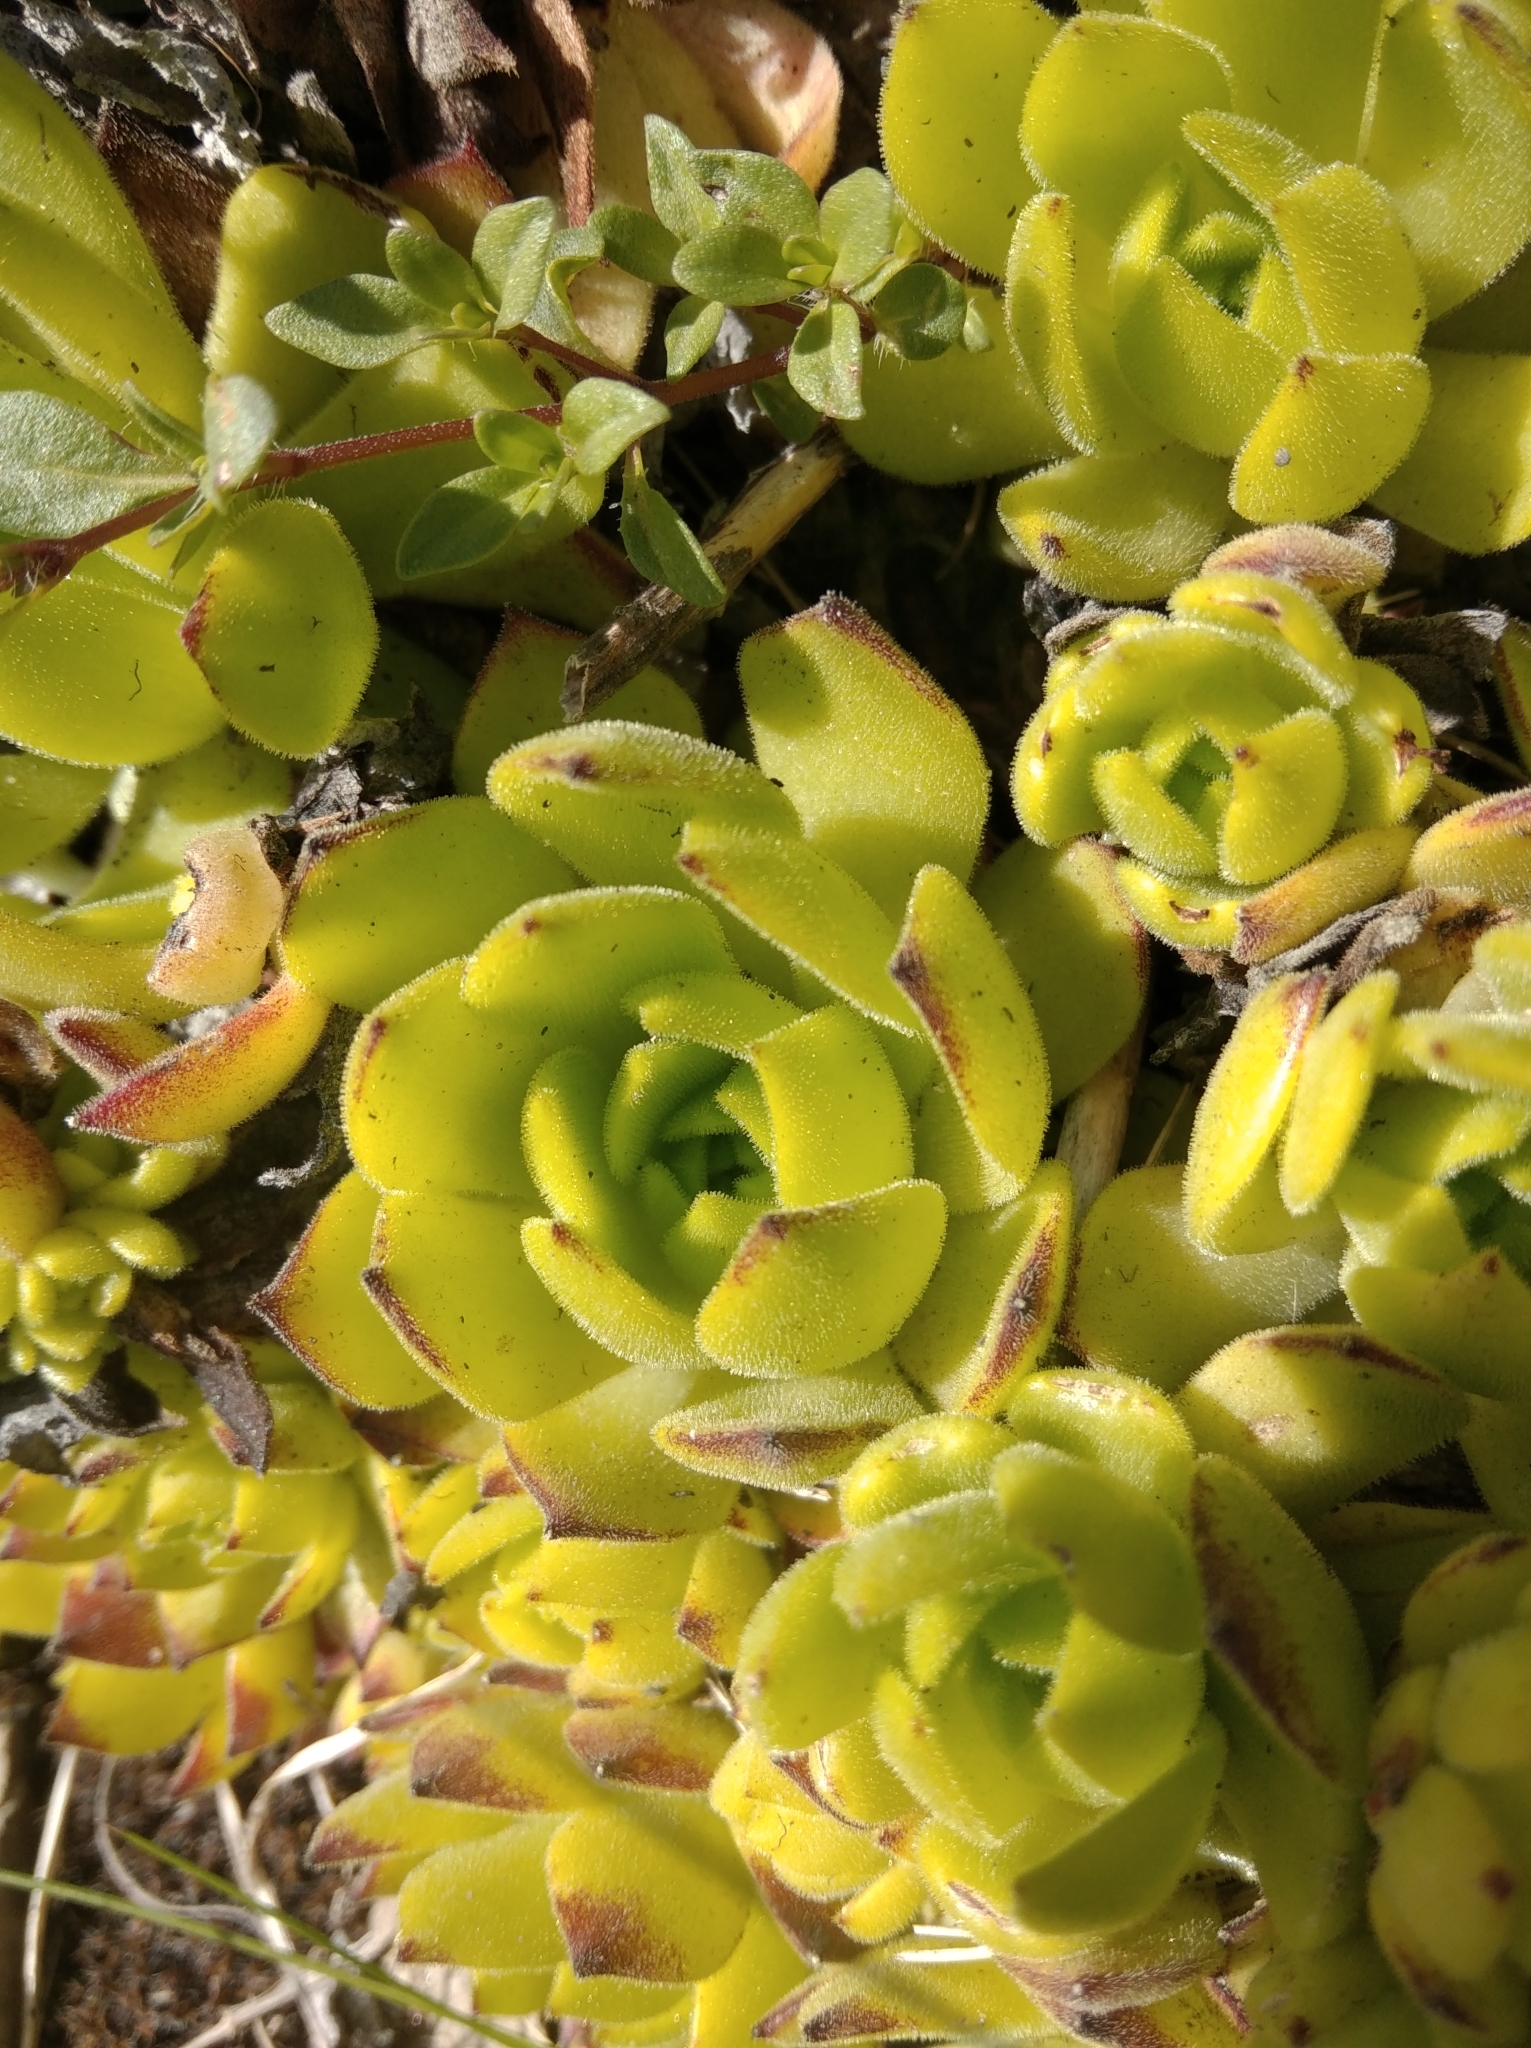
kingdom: Plantae
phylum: Tracheophyta
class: Magnoliopsida
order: Saxifragales
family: Crassulaceae
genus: Sempervivum
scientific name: Sempervivum montanum
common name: Mountain house-leek
